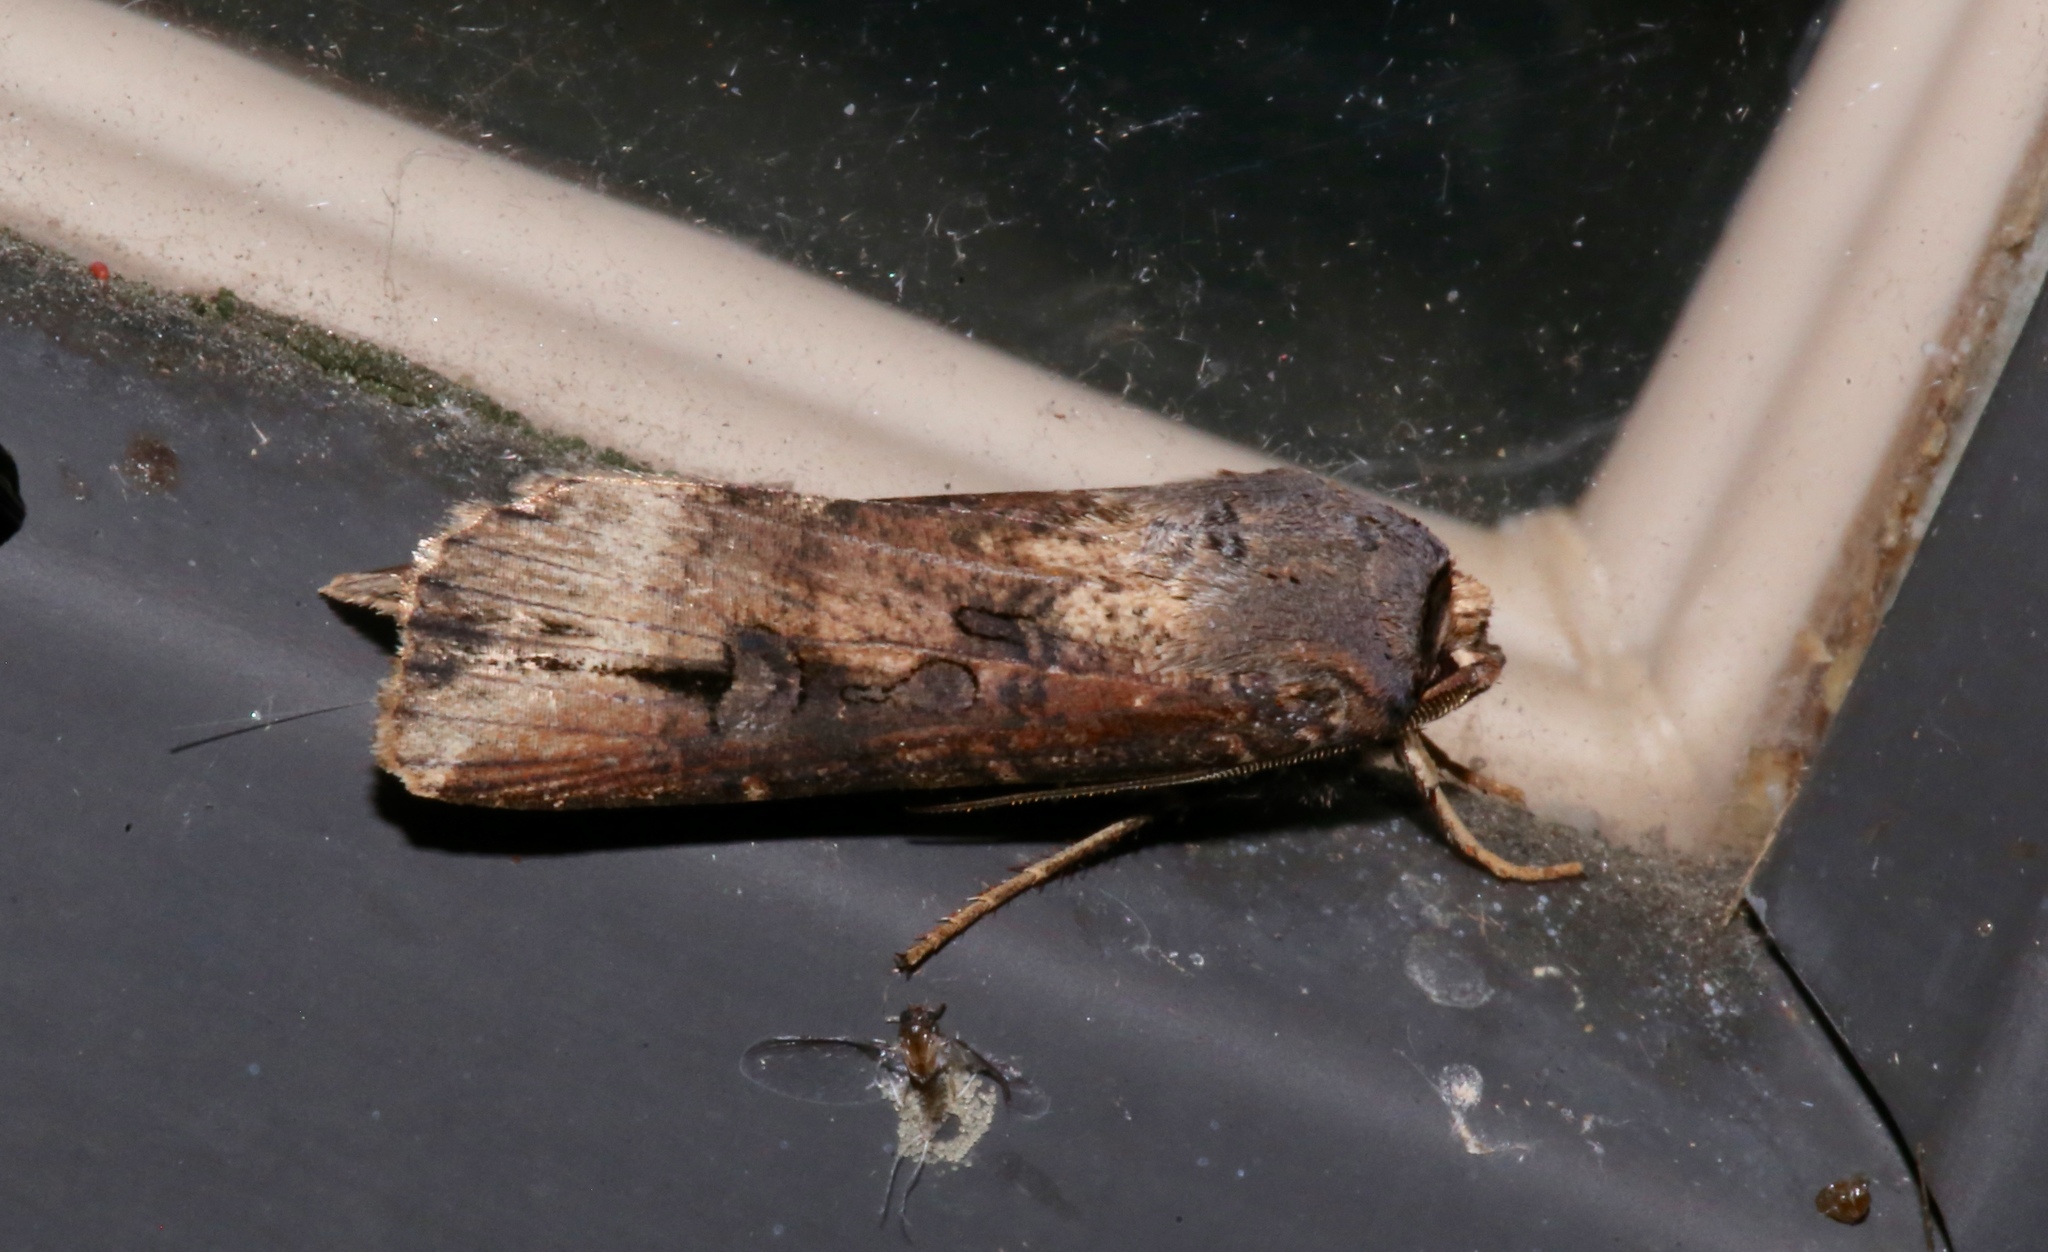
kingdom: Animalia
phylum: Arthropoda
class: Insecta
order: Lepidoptera
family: Noctuidae
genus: Agrotis
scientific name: Agrotis ipsilon
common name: Dark sword-grass
